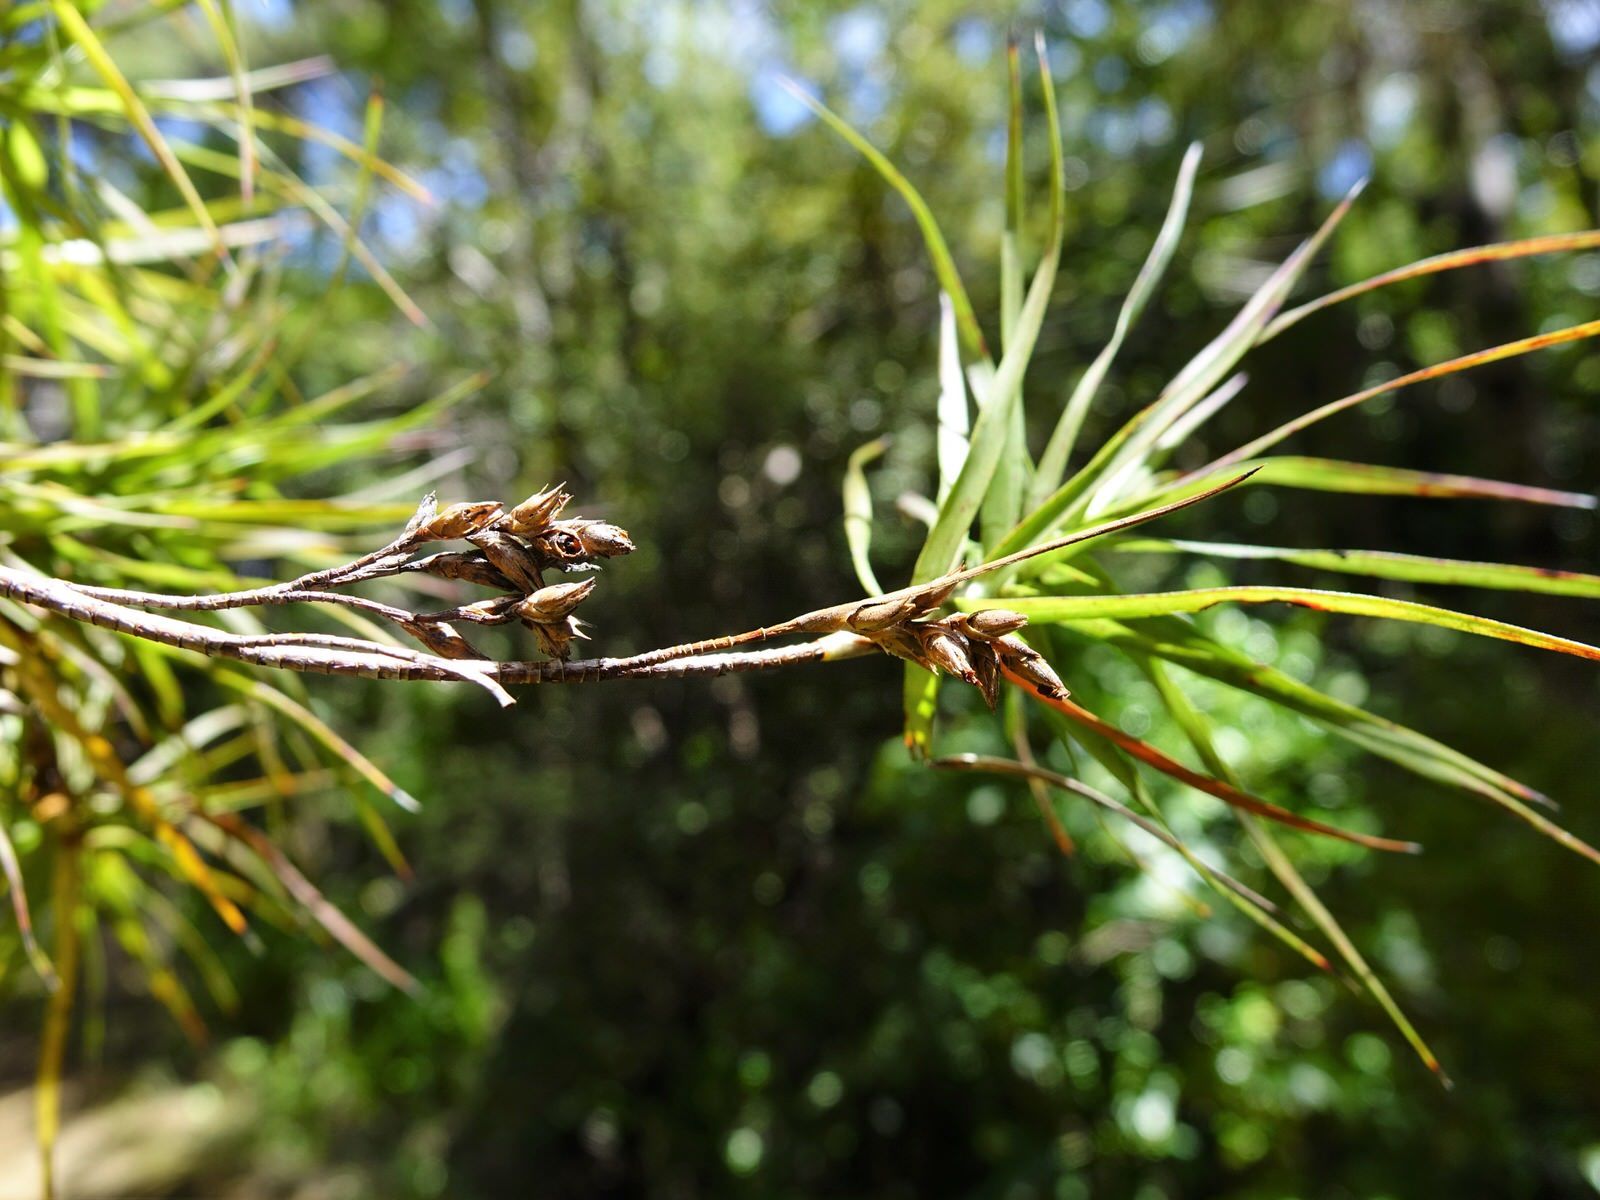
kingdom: Plantae
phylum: Tracheophyta
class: Magnoliopsida
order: Ericales
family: Ericaceae
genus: Dracophyllum
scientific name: Dracophyllum sinclairii
